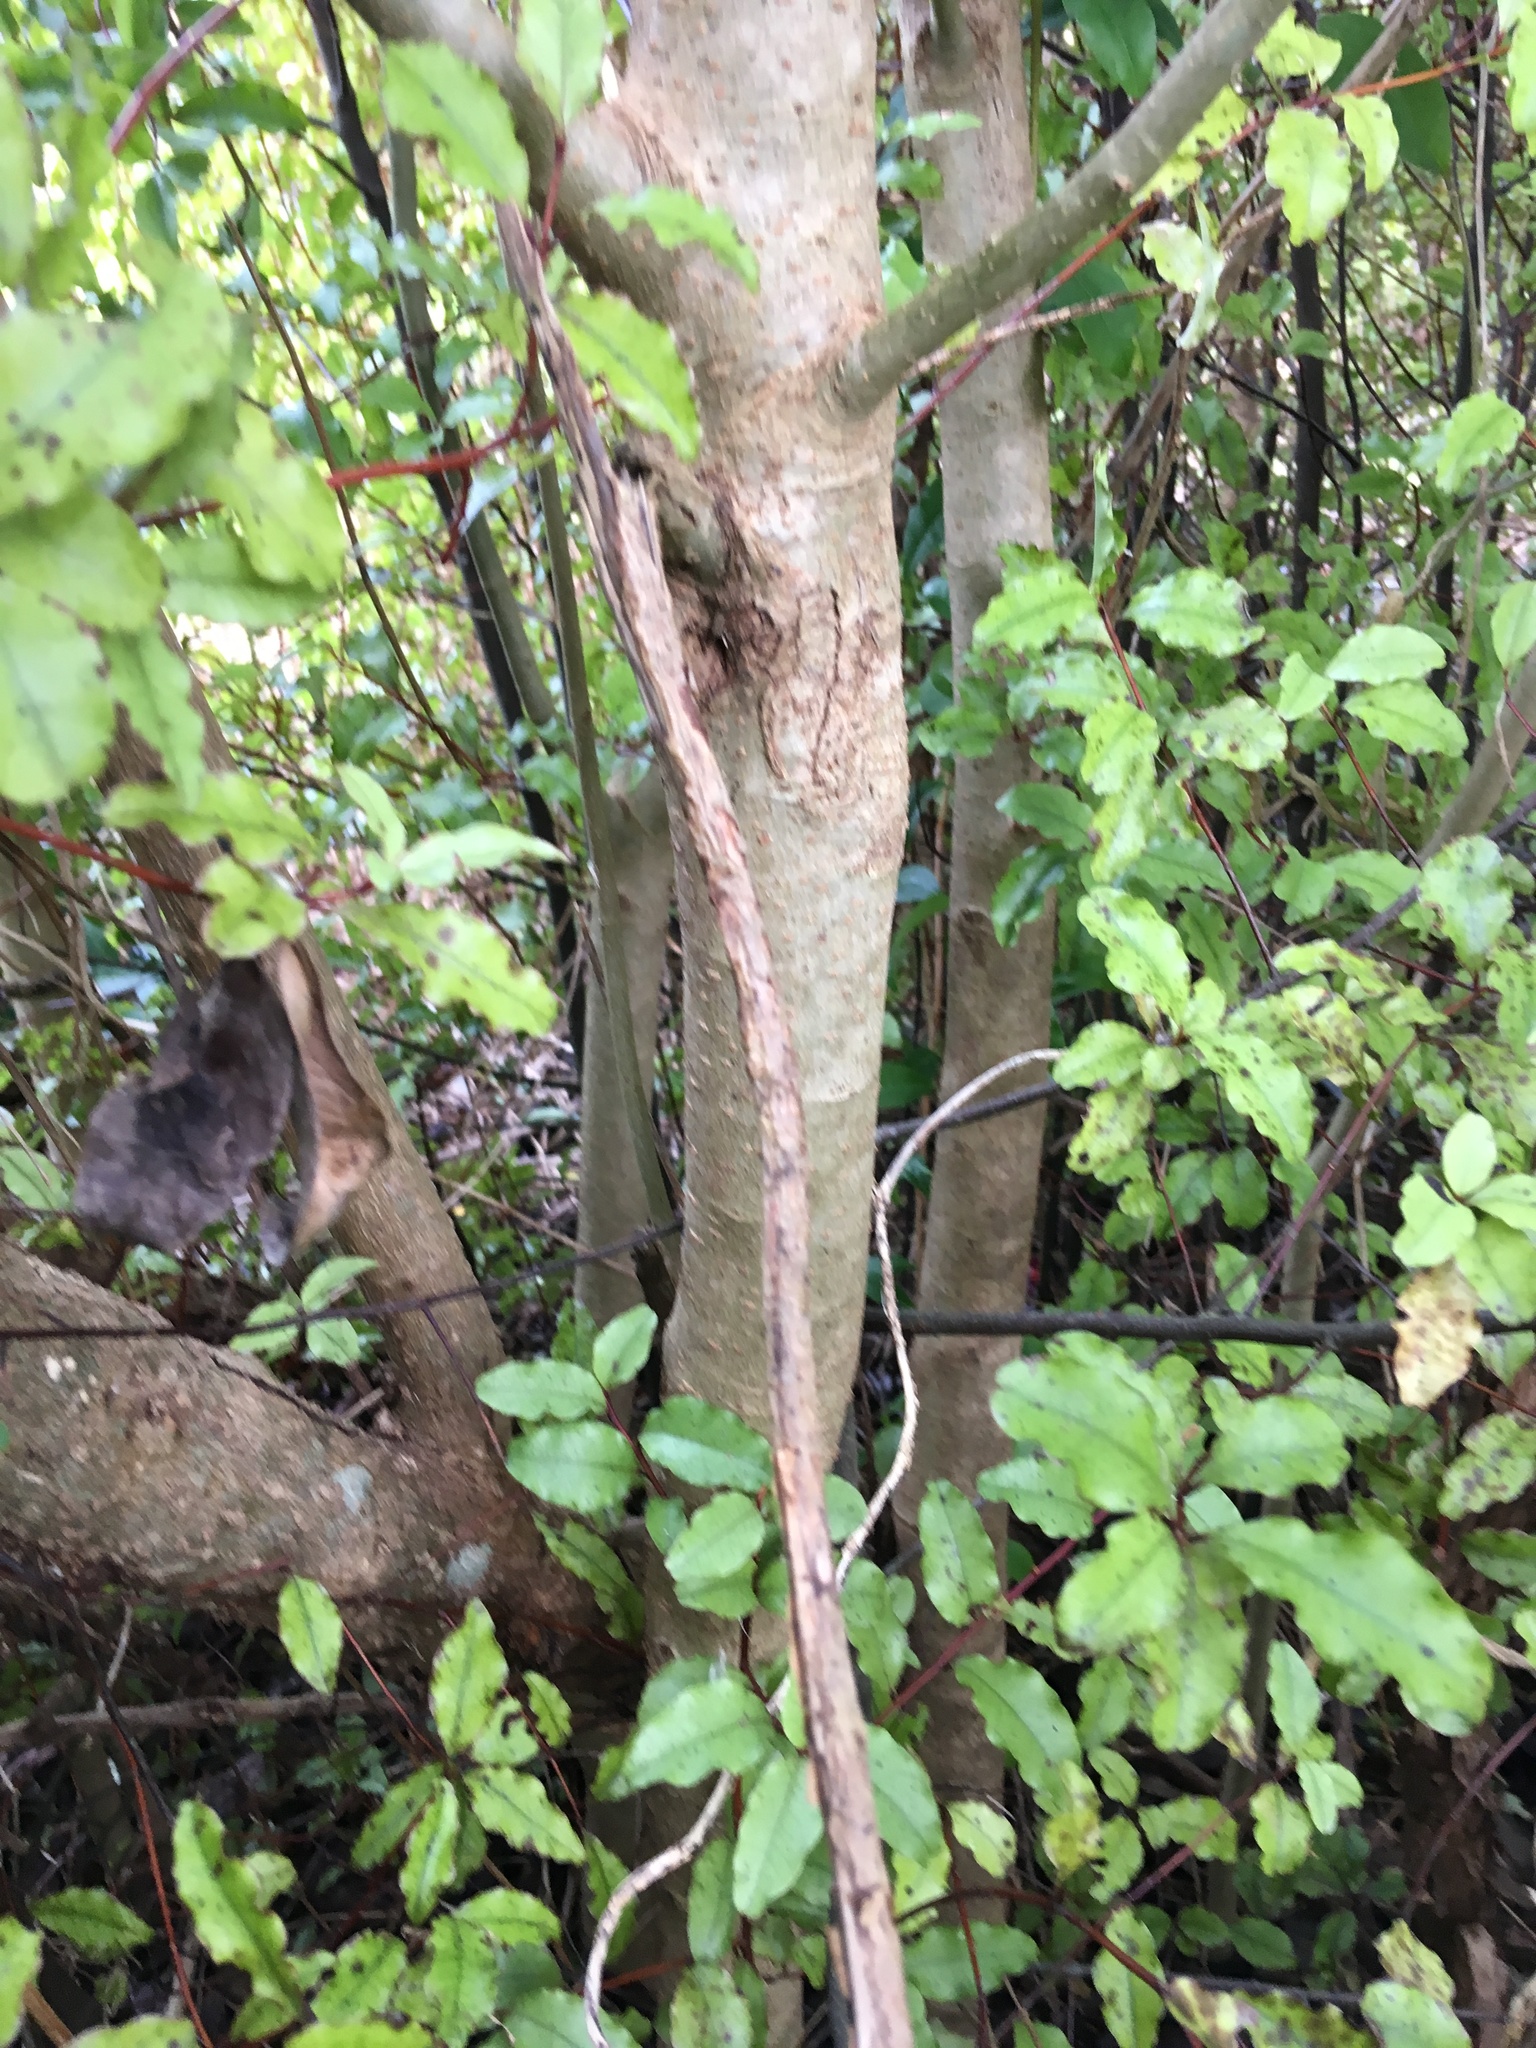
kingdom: Plantae
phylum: Tracheophyta
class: Magnoliopsida
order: Lamiales
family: Oleaceae
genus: Ligustrum
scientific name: Ligustrum lucidum
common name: Glossy privet
